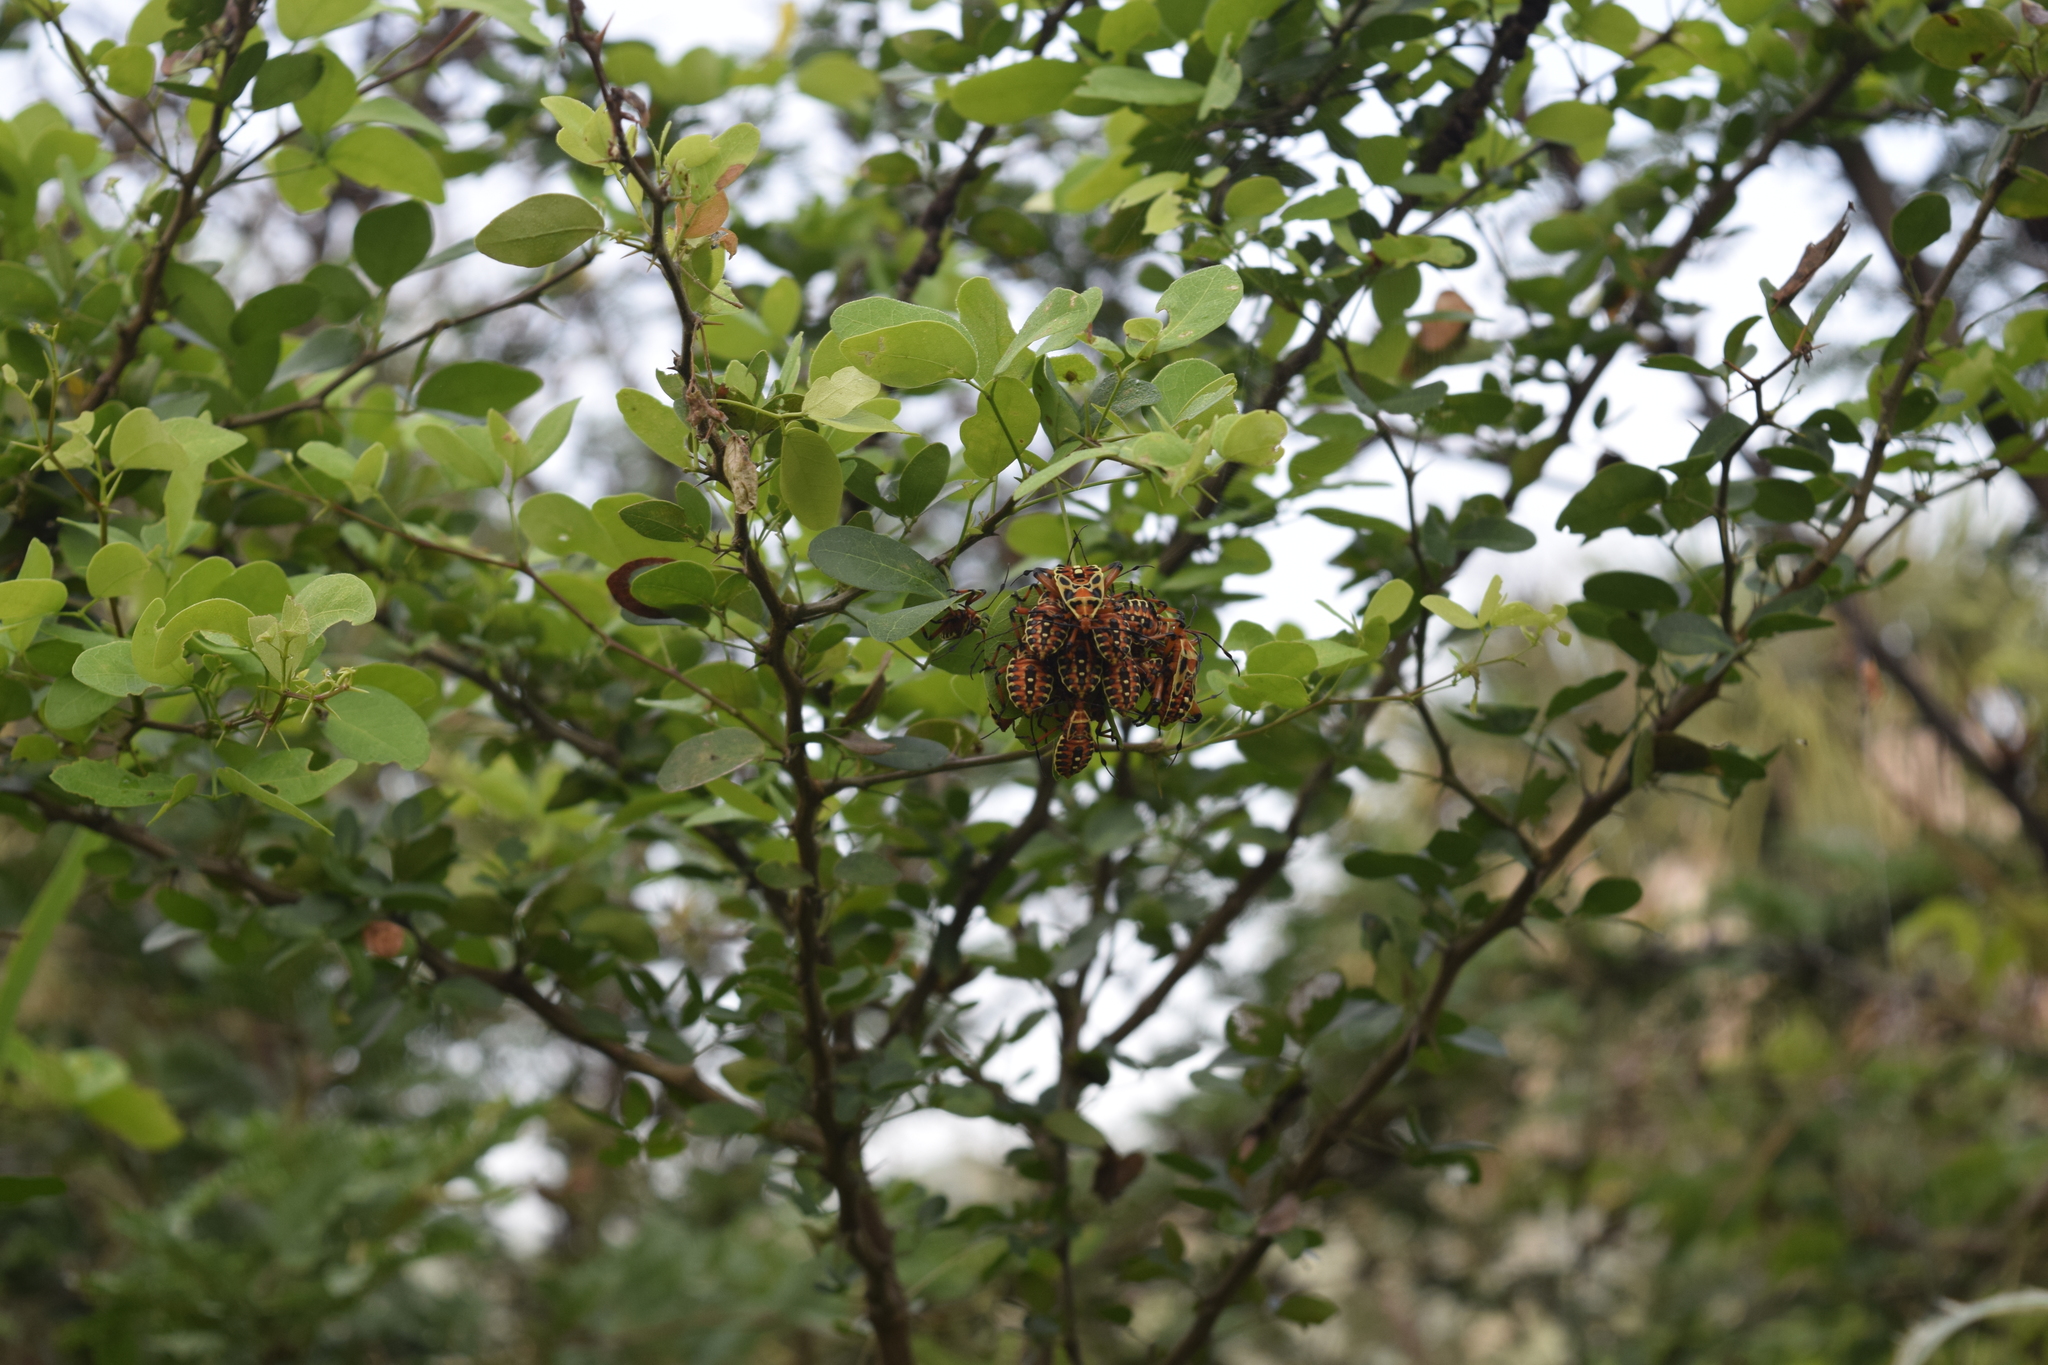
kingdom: Animalia
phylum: Arthropoda
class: Insecta
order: Hemiptera
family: Coreidae
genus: Pachylis
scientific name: Pachylis nervosus
